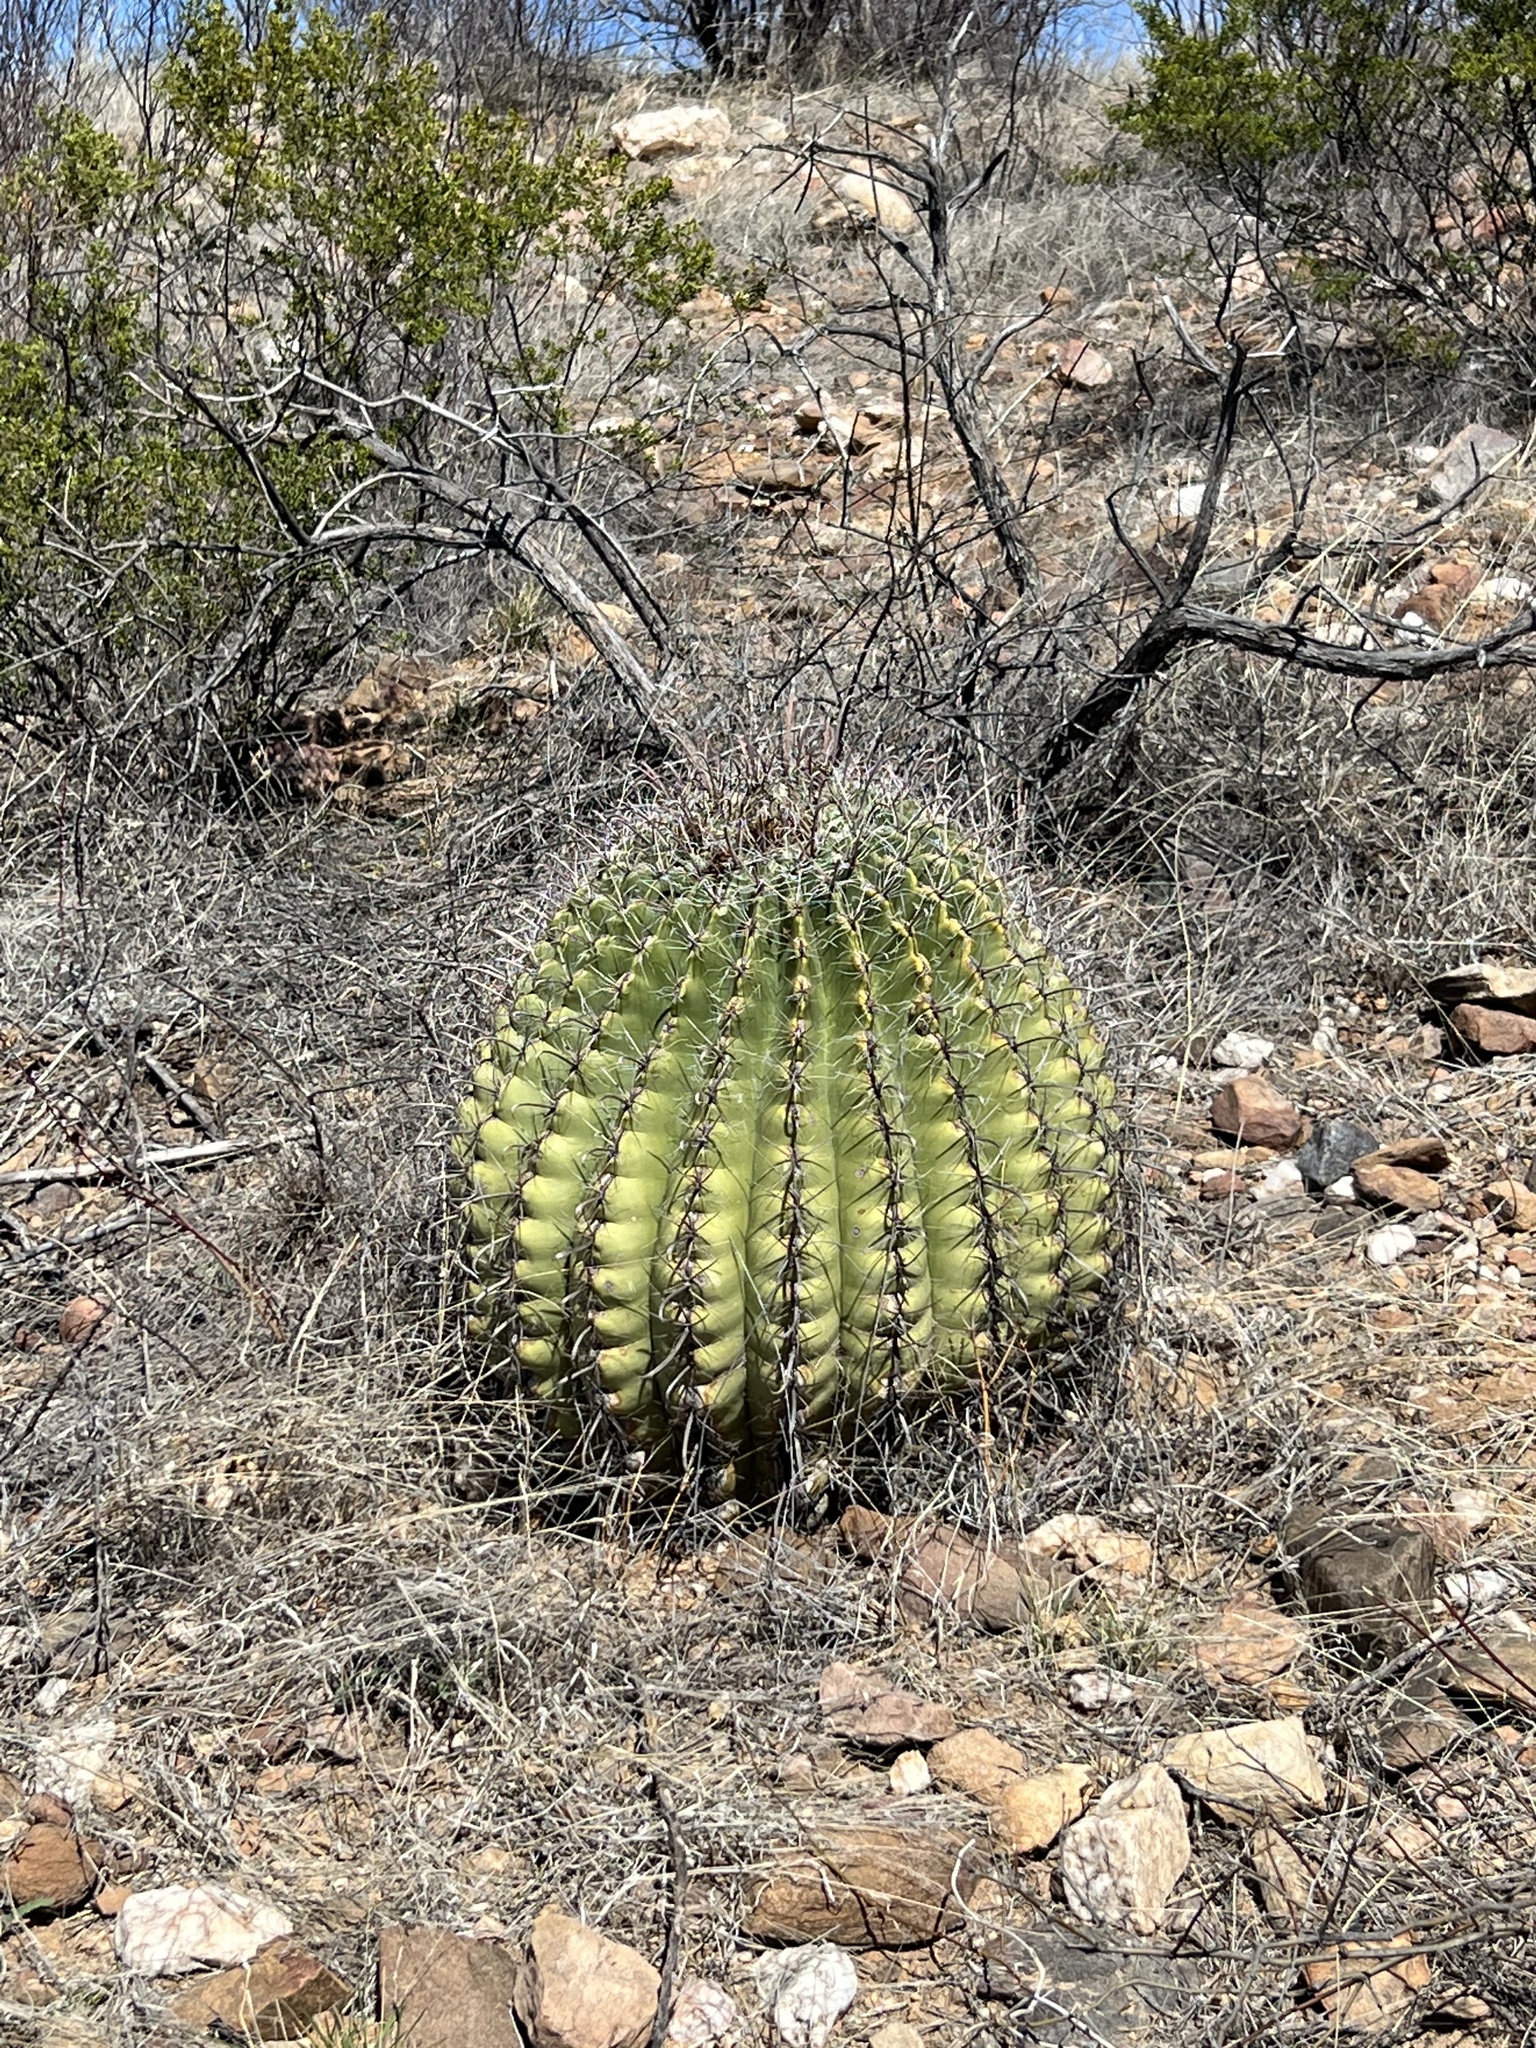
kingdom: Plantae
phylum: Tracheophyta
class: Magnoliopsida
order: Caryophyllales
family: Cactaceae
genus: Ferocactus
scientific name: Ferocactus wislizeni
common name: Candy barrel cactus
